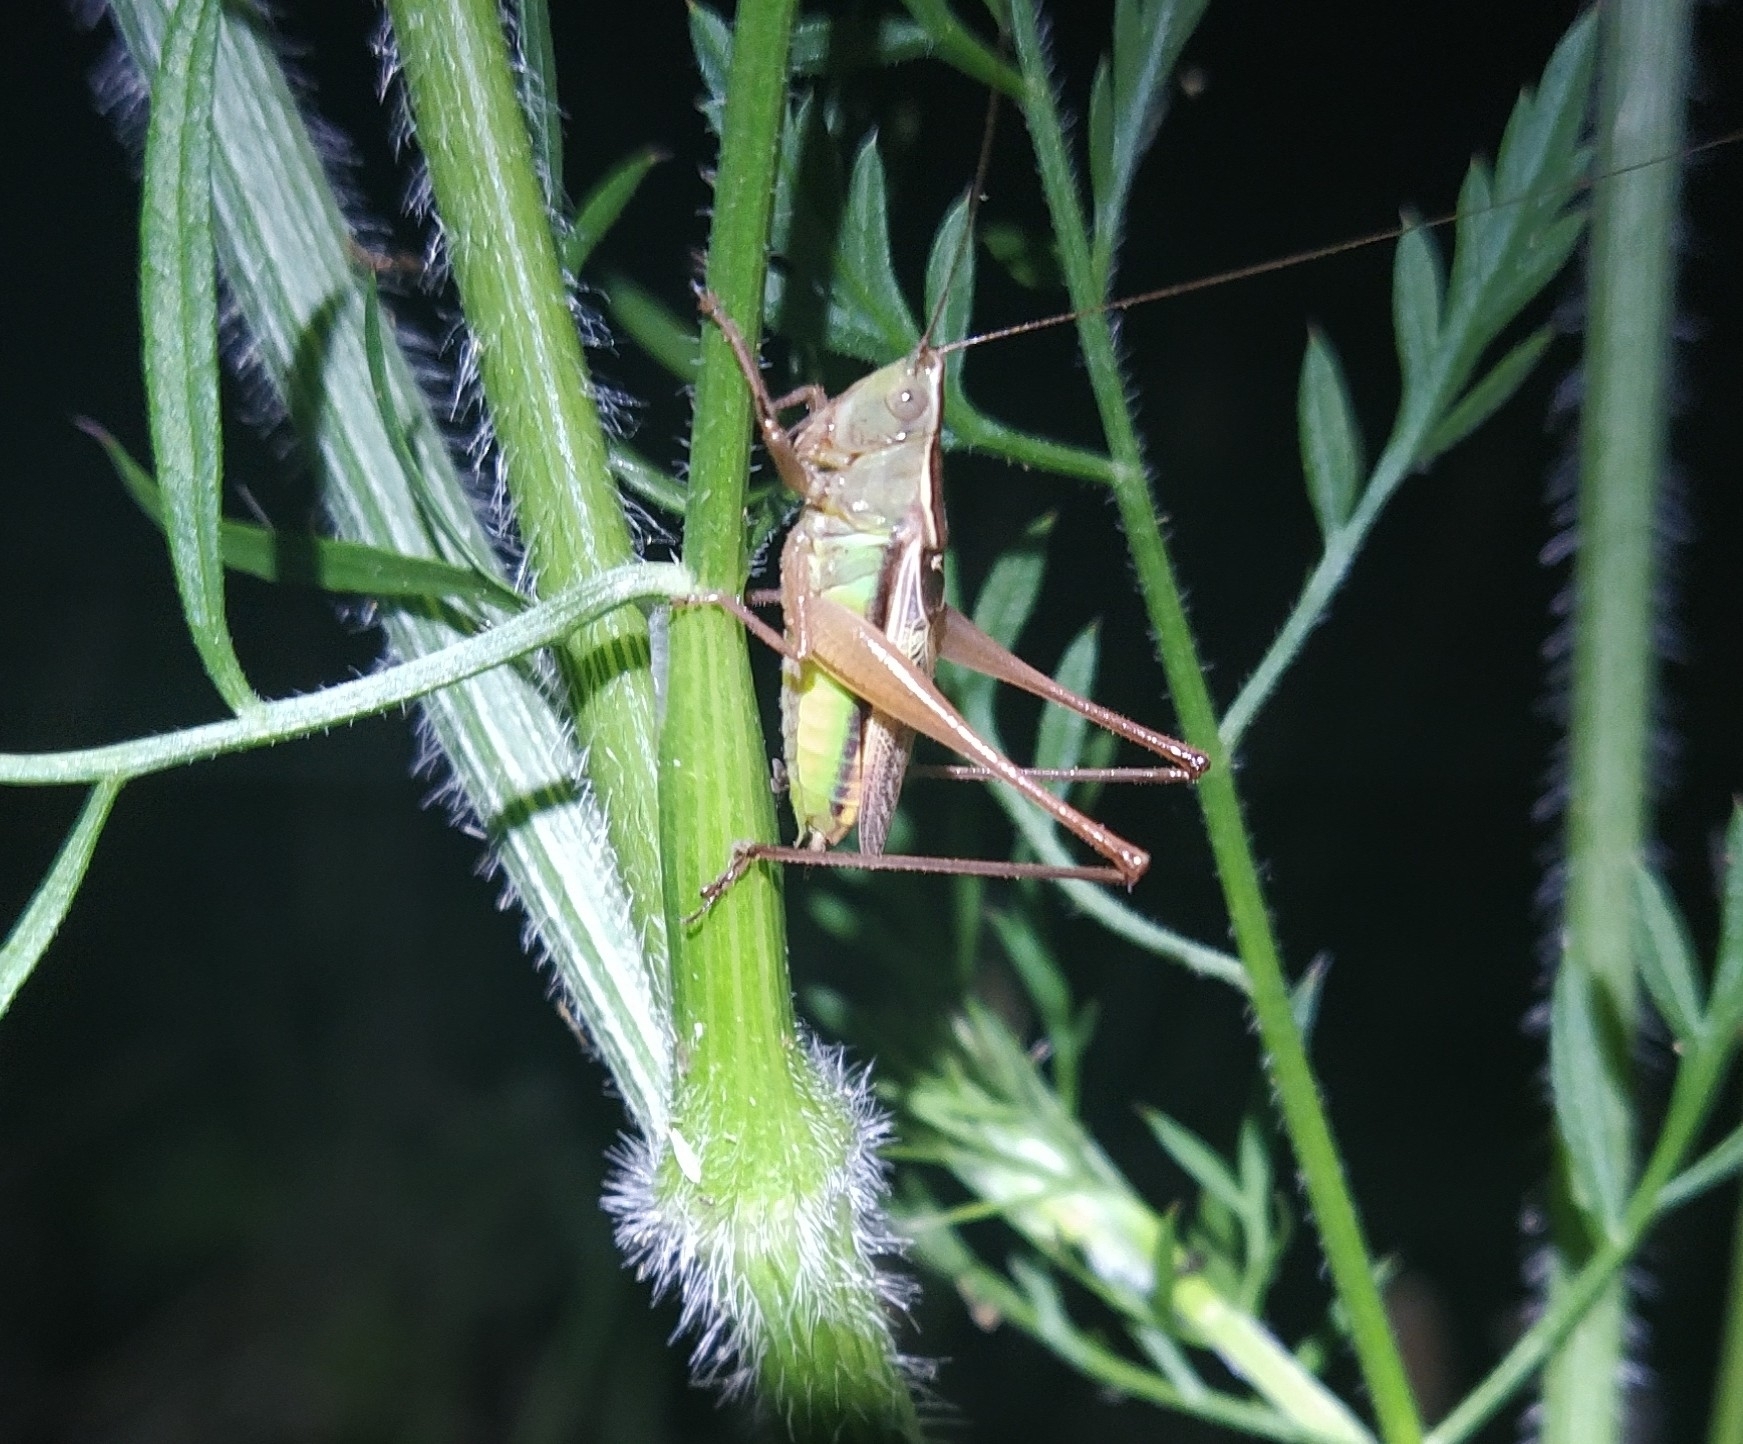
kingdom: Animalia
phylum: Arthropoda
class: Insecta
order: Orthoptera
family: Tettigoniidae
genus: Conocephalus
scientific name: Conocephalus albescens
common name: Whitish meadow katydid
